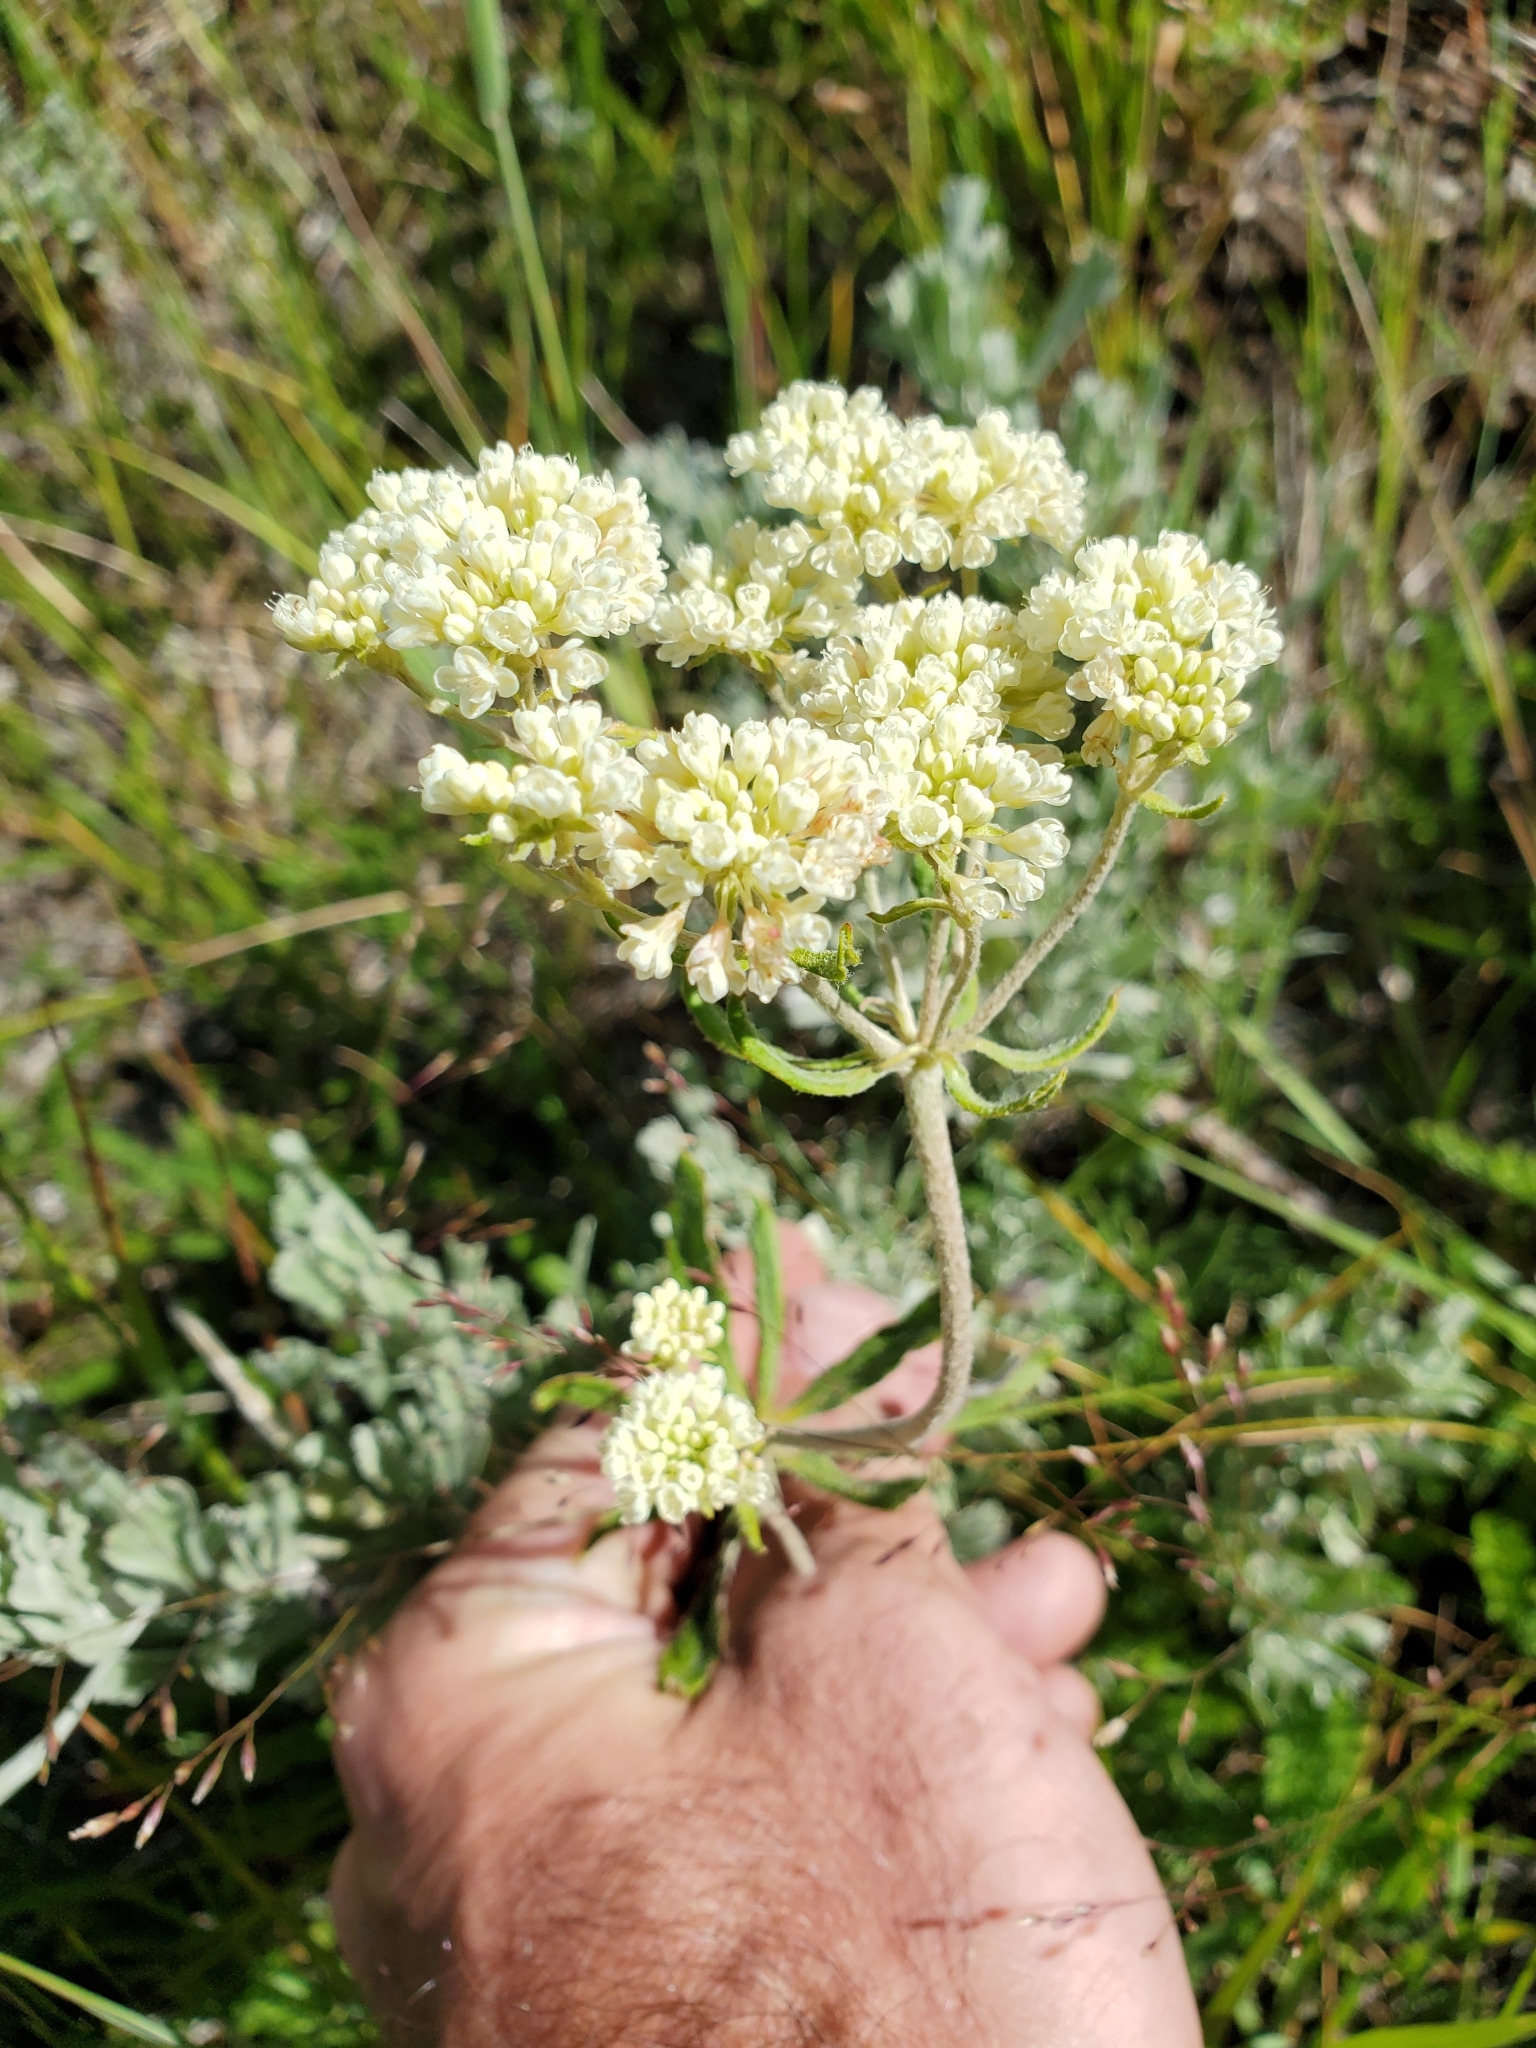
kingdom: Plantae
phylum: Tracheophyta
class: Magnoliopsida
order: Caryophyllales
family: Polygonaceae
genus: Eriogonum
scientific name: Eriogonum heracleoides
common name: Wyeth's buckwheat
